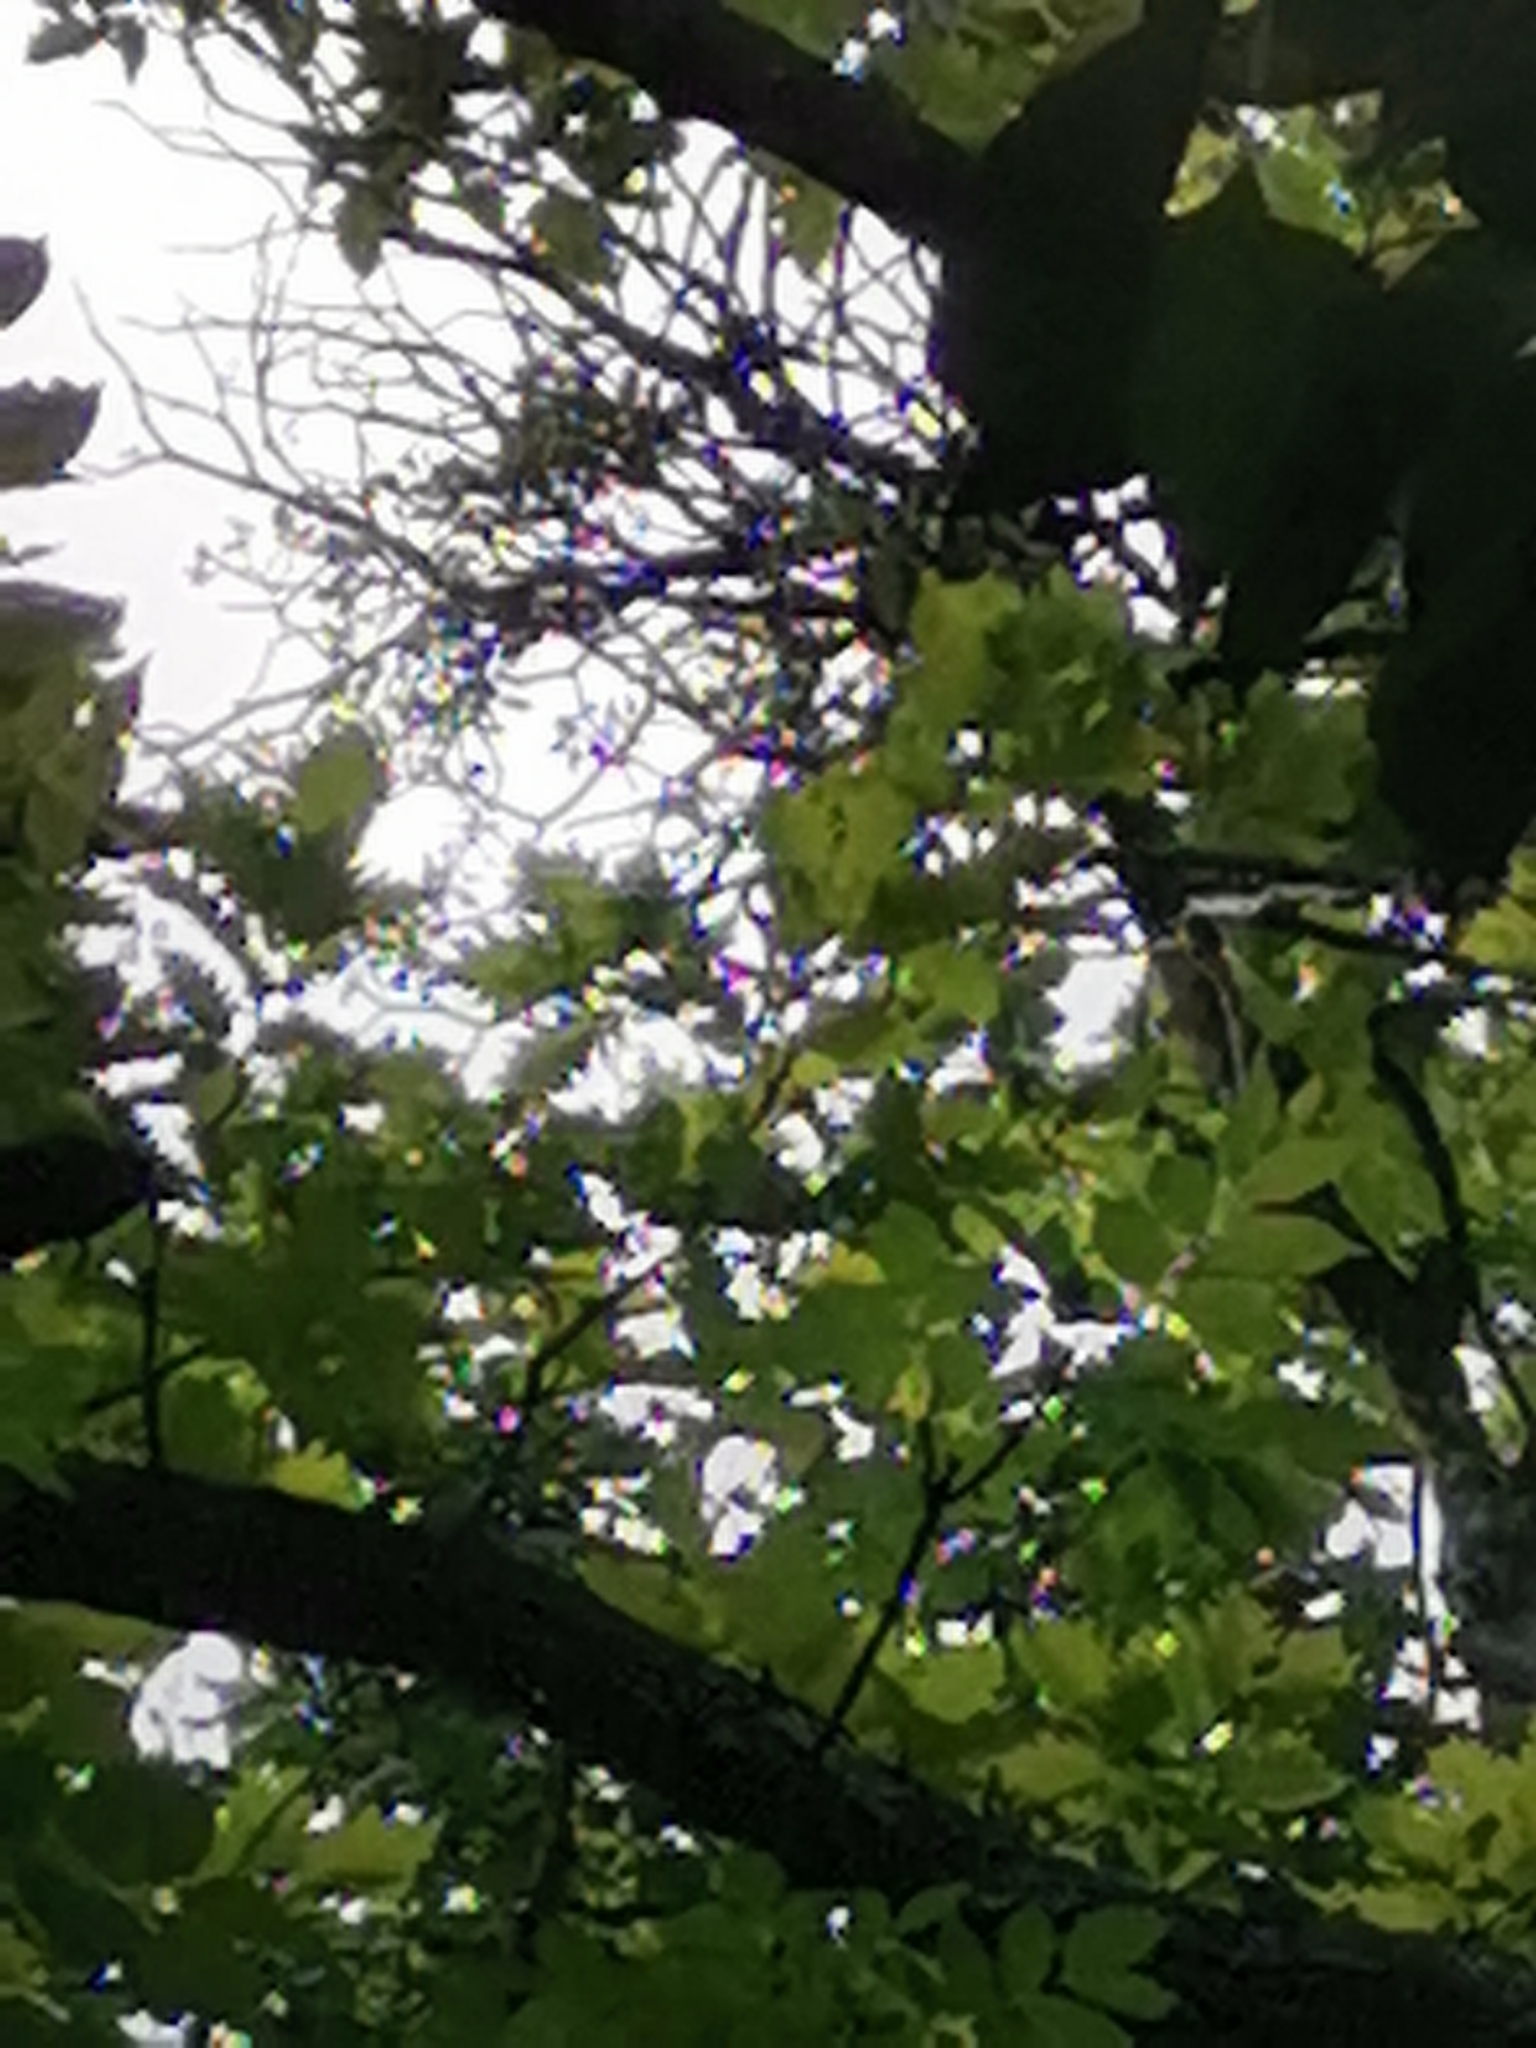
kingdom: Plantae
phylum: Tracheophyta
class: Magnoliopsida
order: Santalales
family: Loranthaceae
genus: Loranthus
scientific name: Loranthus europaeus
